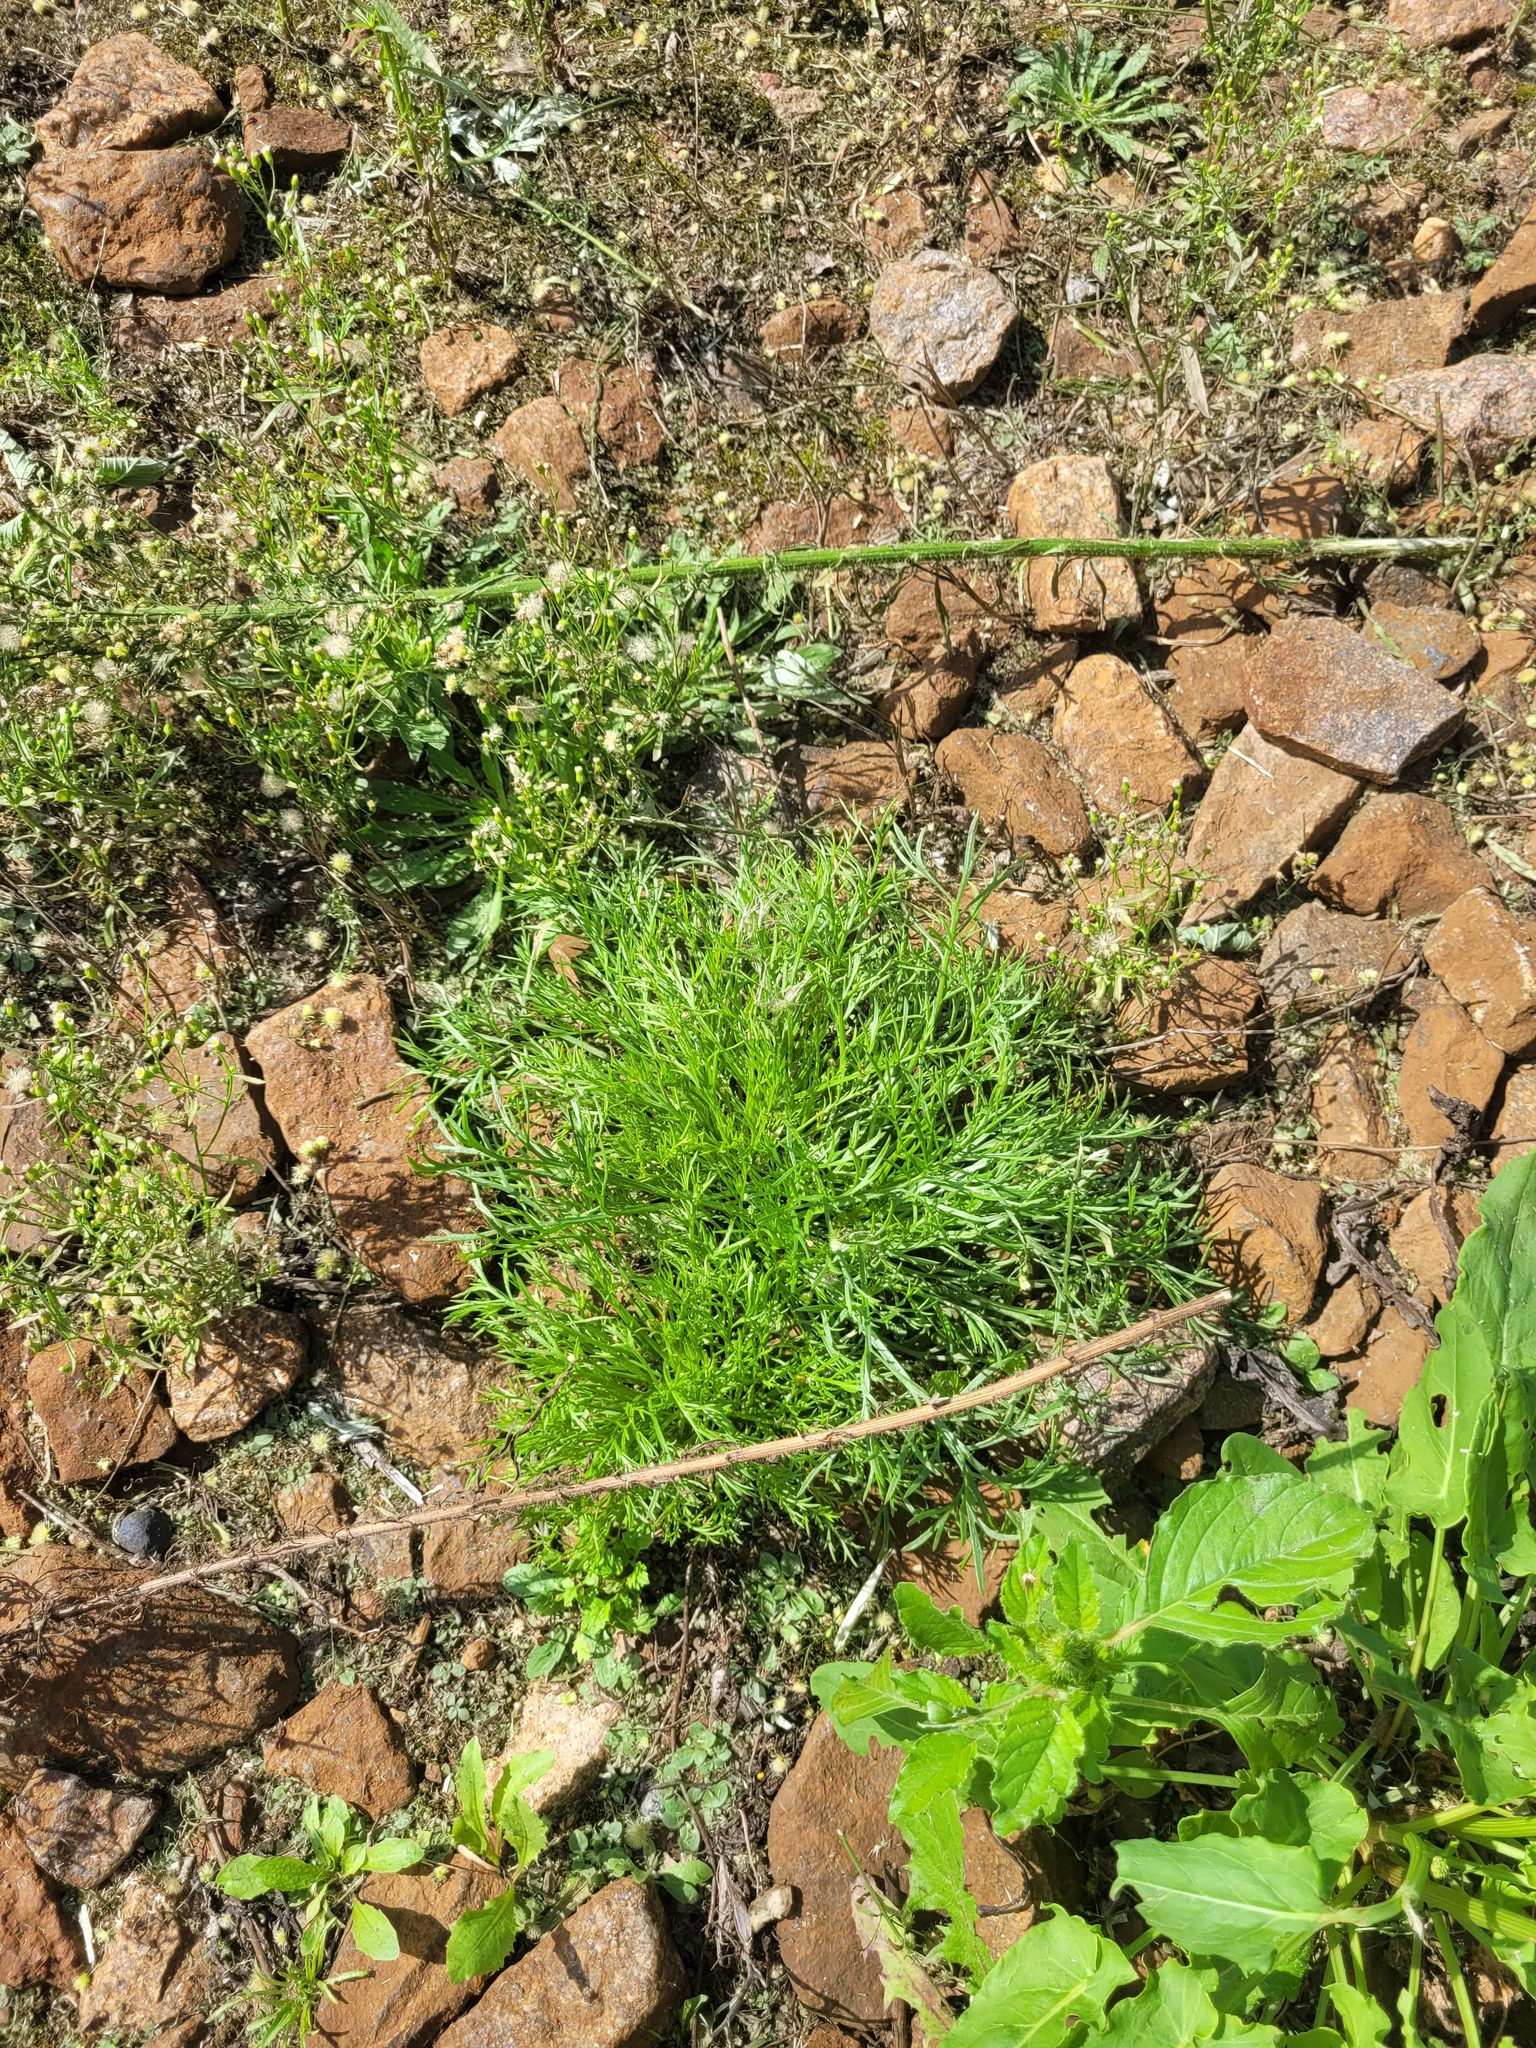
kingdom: Plantae
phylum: Tracheophyta
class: Magnoliopsida
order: Asterales
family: Asteraceae
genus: Artemisia
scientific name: Artemisia campestris
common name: Field wormwood
